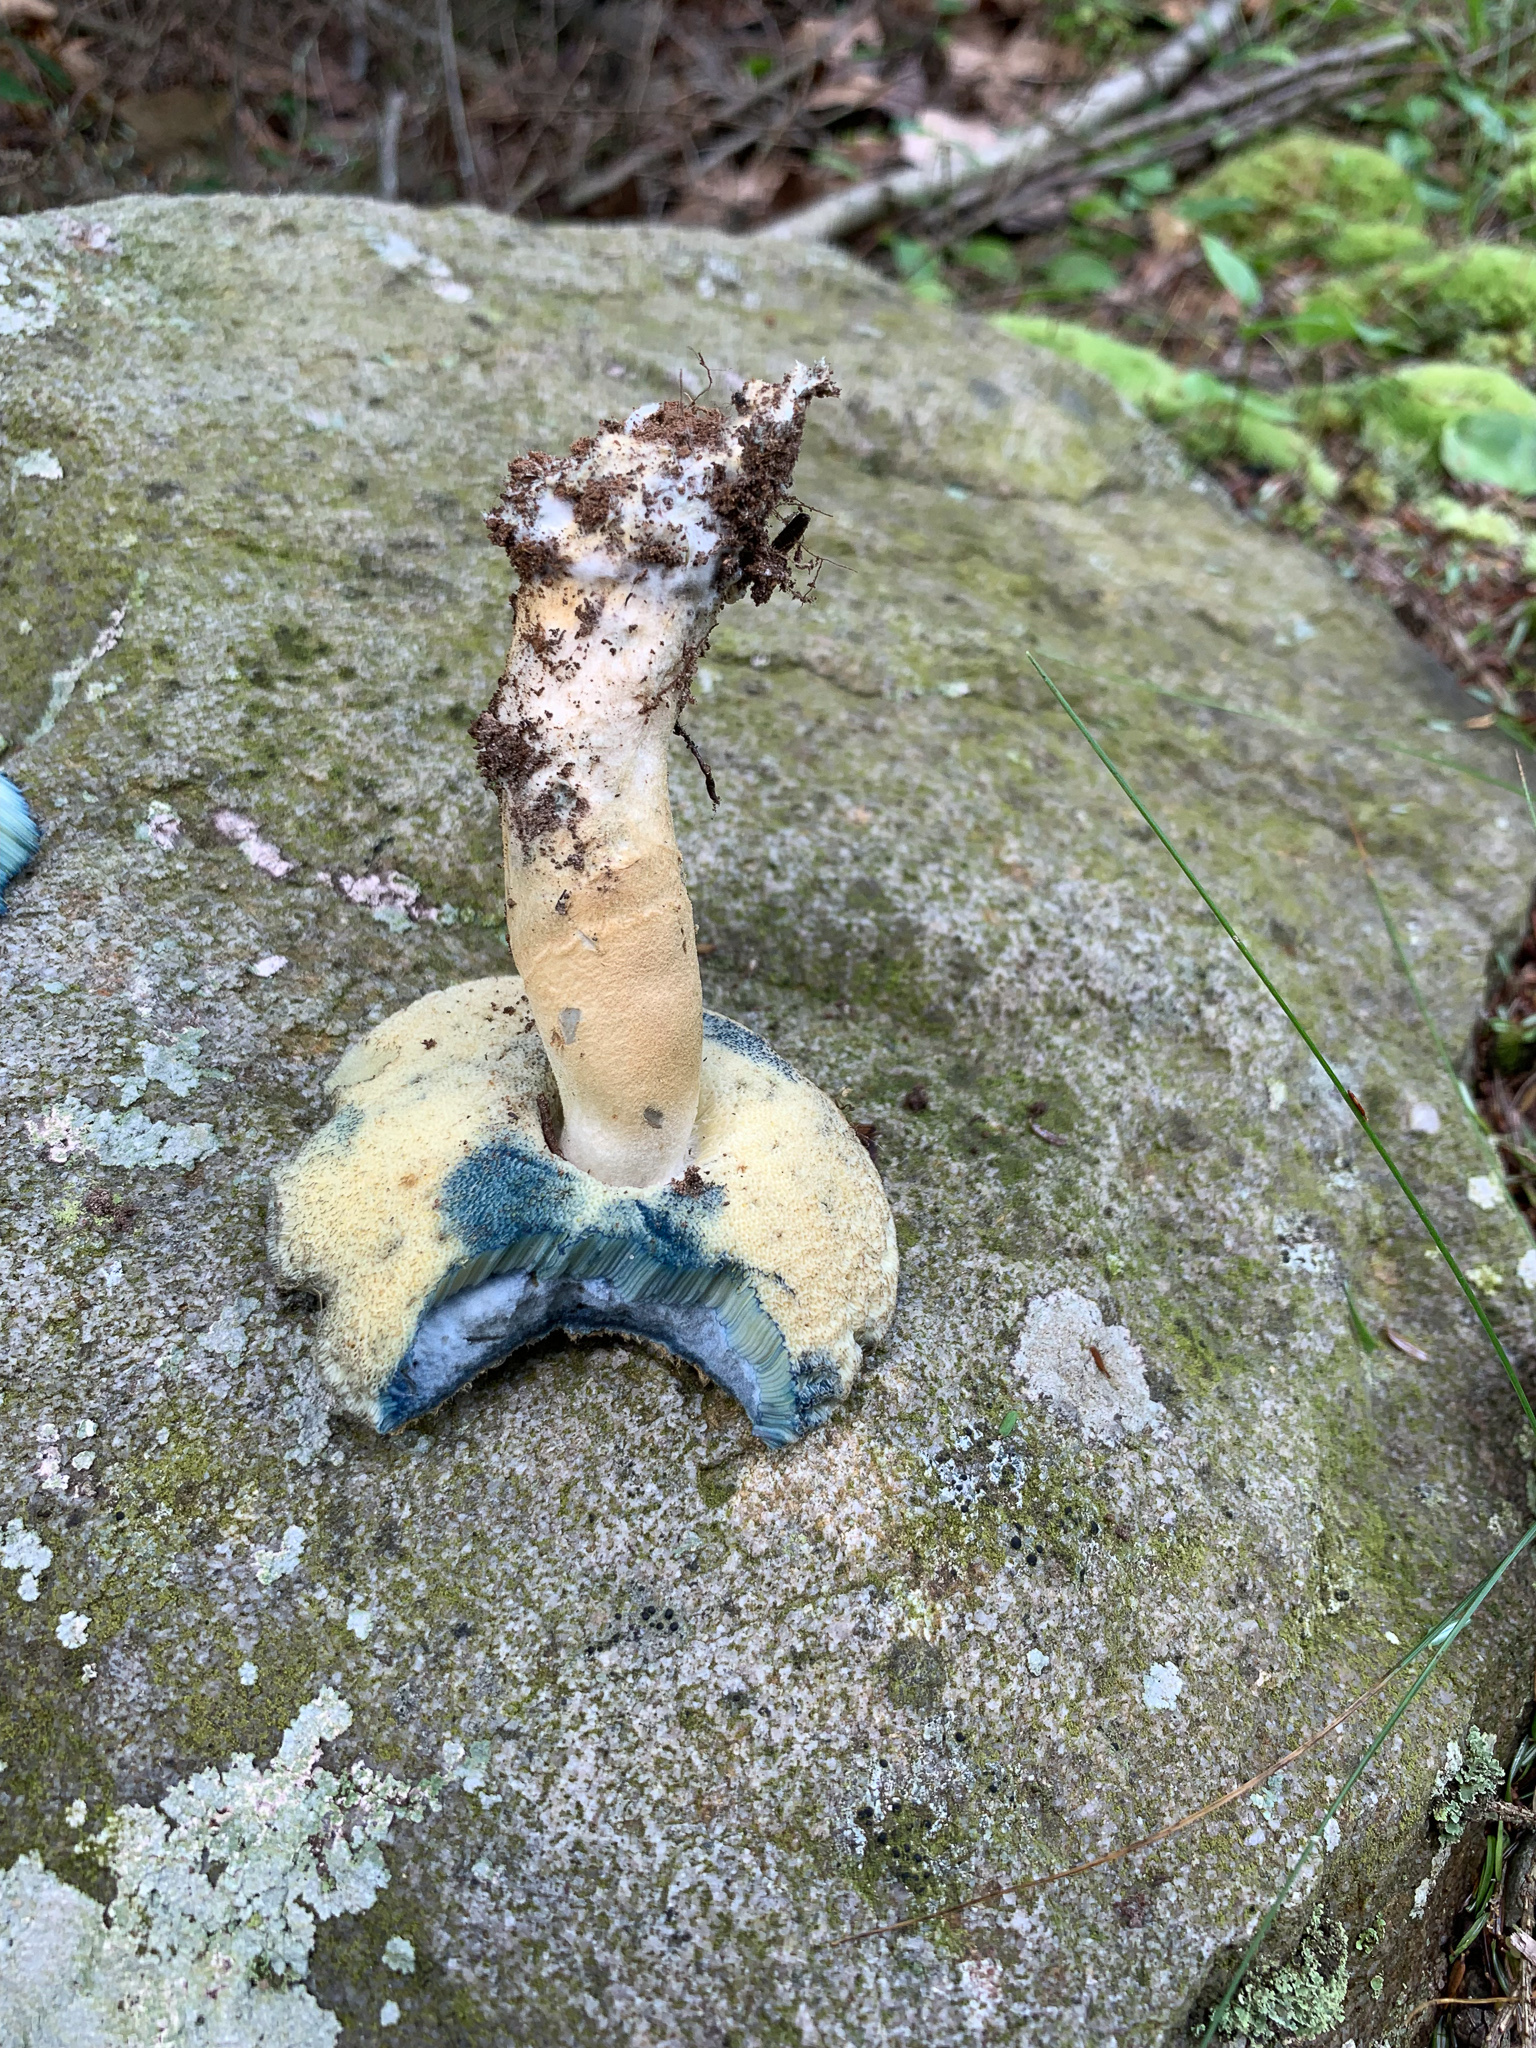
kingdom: Fungi
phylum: Basidiomycota
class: Agaricomycetes
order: Boletales
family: Gyroporaceae
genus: Gyroporus
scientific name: Gyroporus cyanescens
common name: Cornflower bolete
